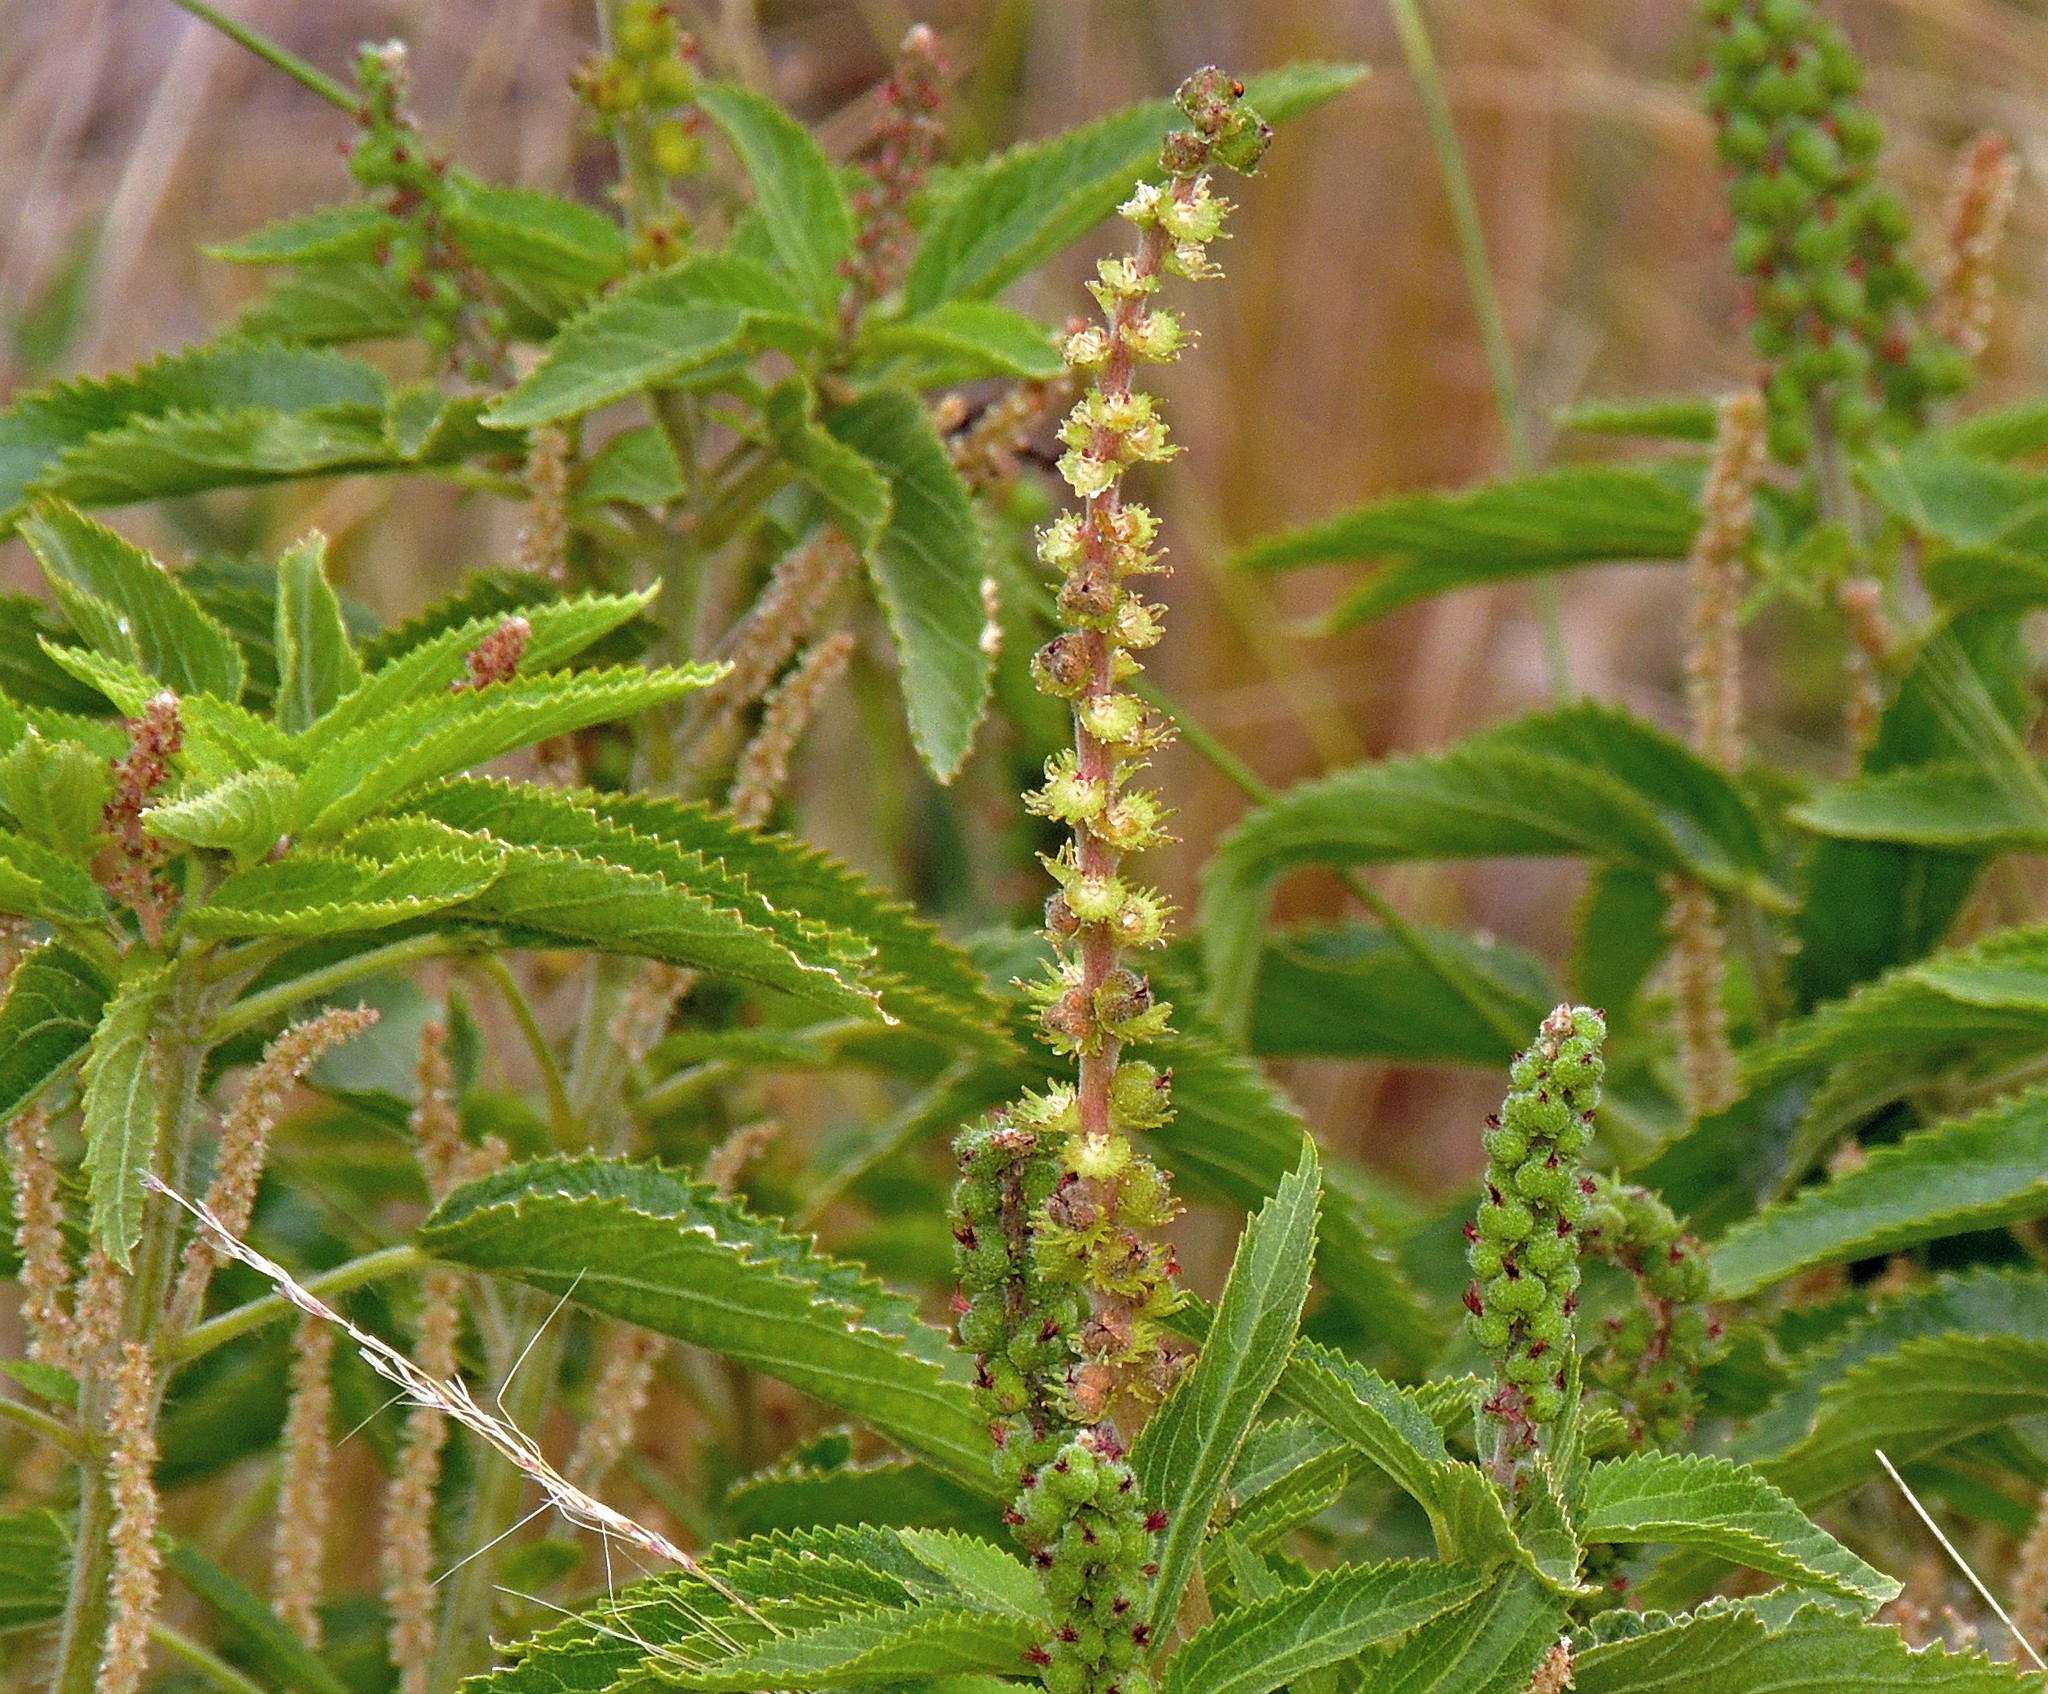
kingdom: Plantae
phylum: Tracheophyta
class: Magnoliopsida
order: Malpighiales
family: Euphorbiaceae
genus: Acalypha
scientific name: Acalypha communis
